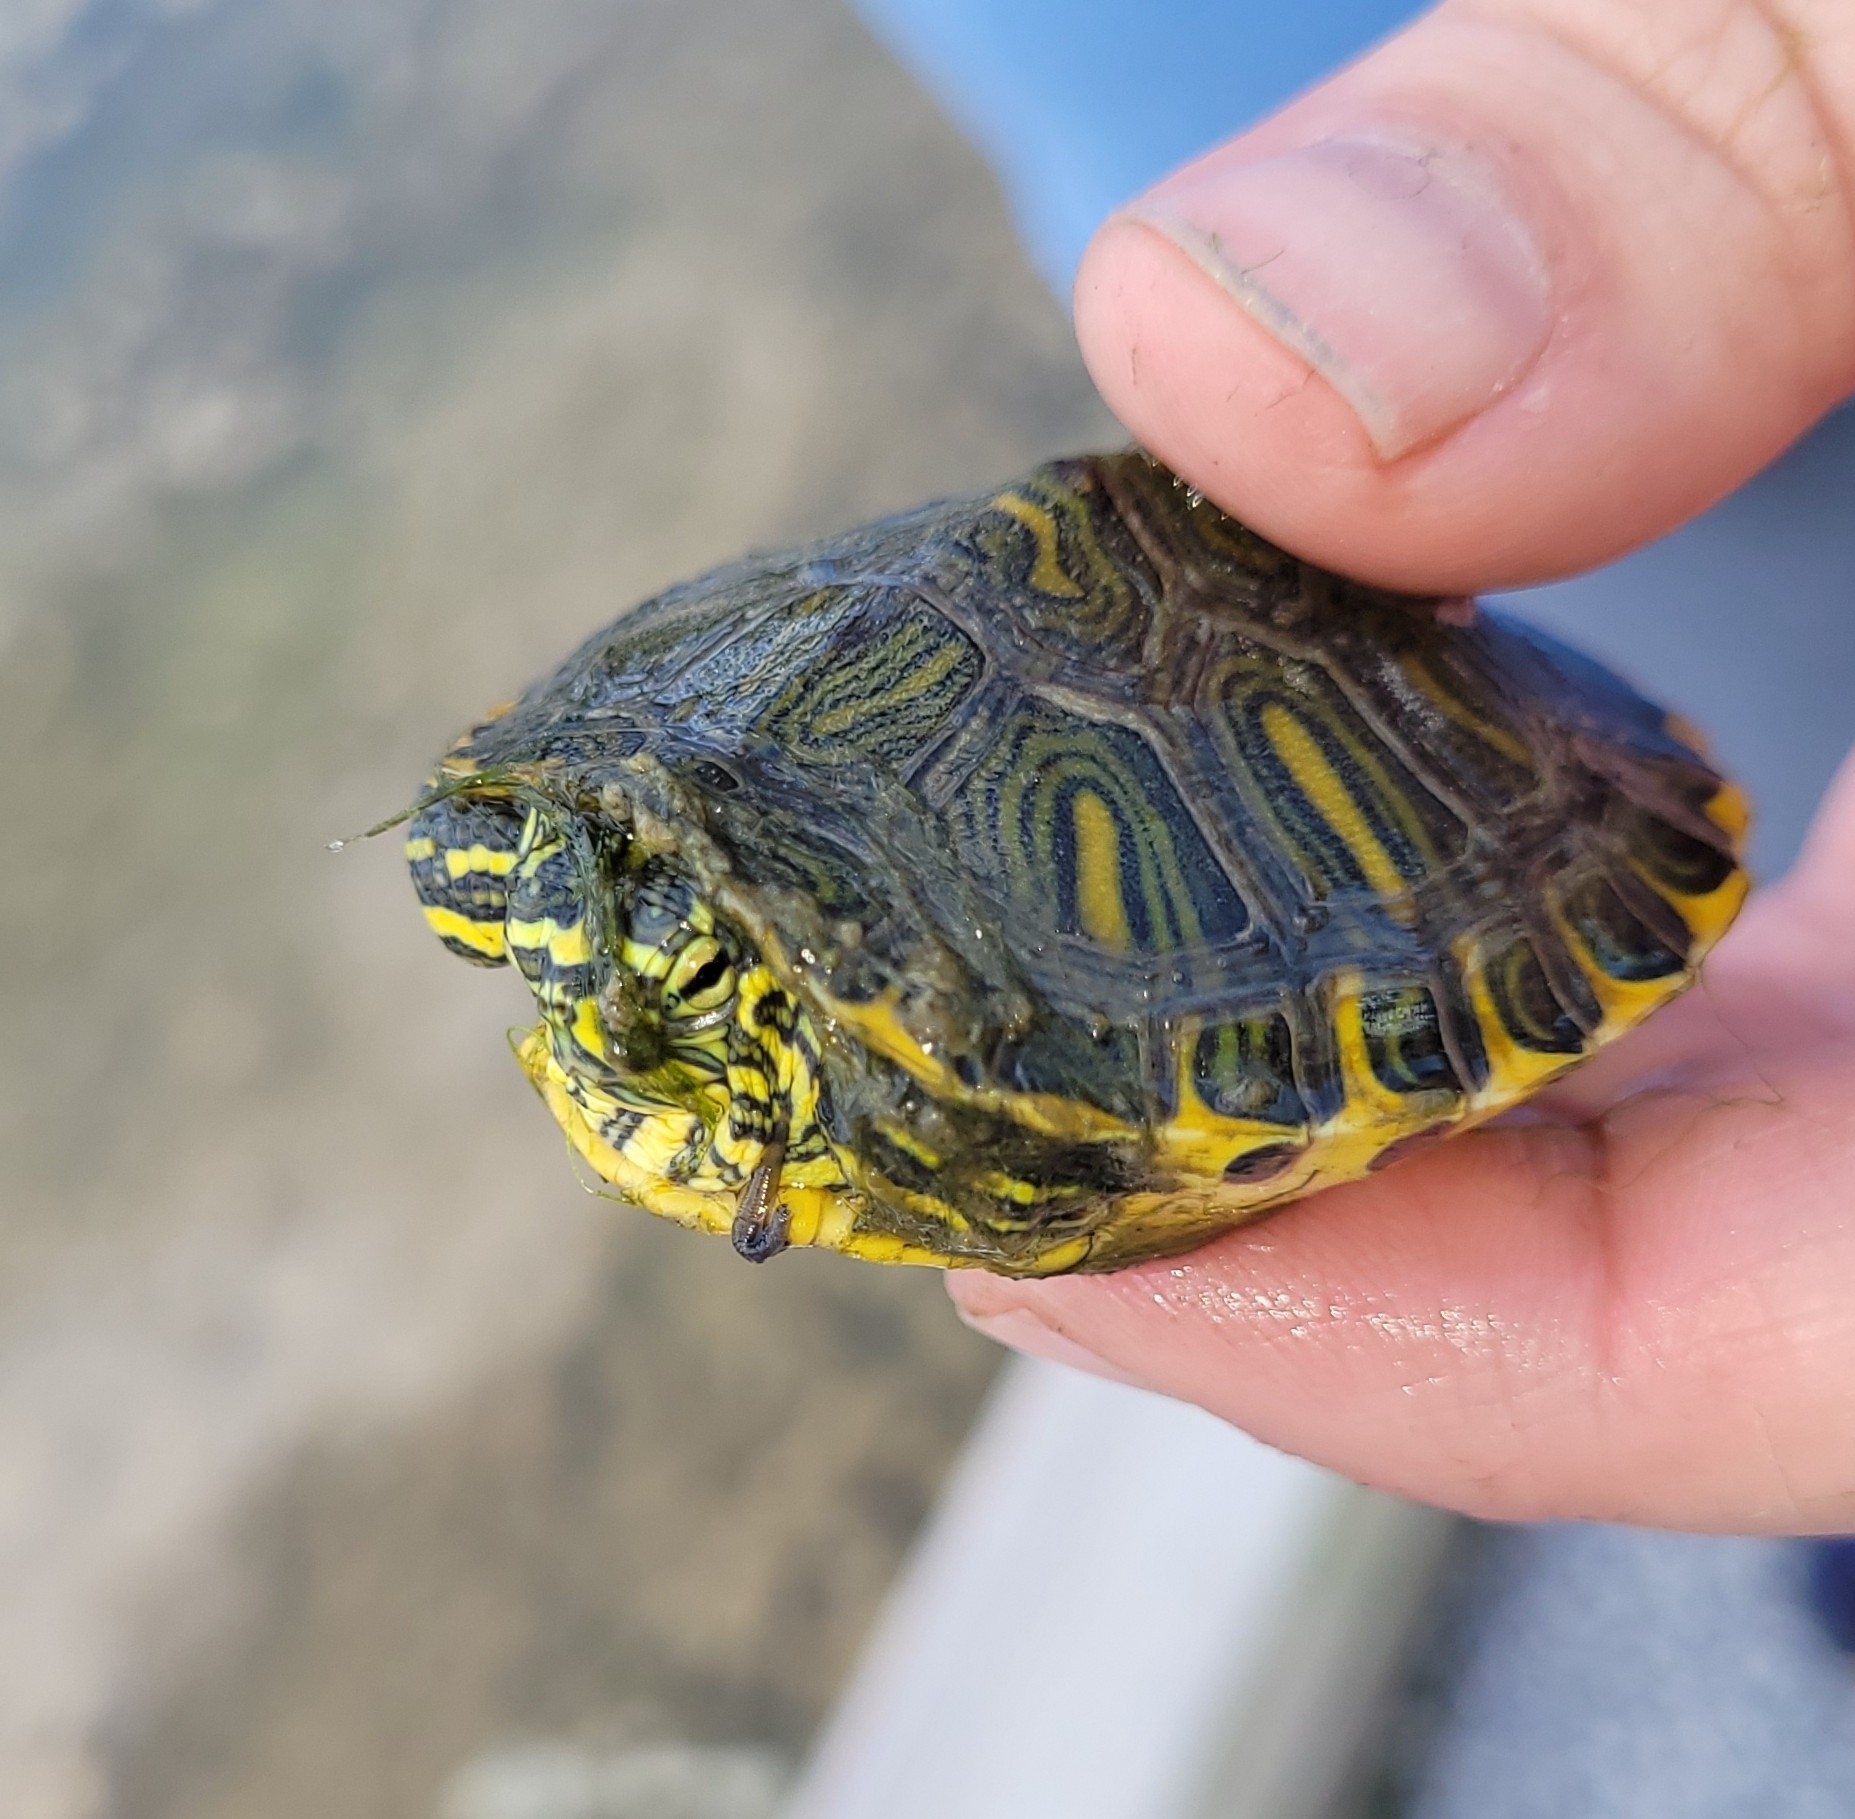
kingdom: Animalia
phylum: Chordata
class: Testudines
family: Emydidae
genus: Trachemys
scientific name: Trachemys scripta
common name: Slider
